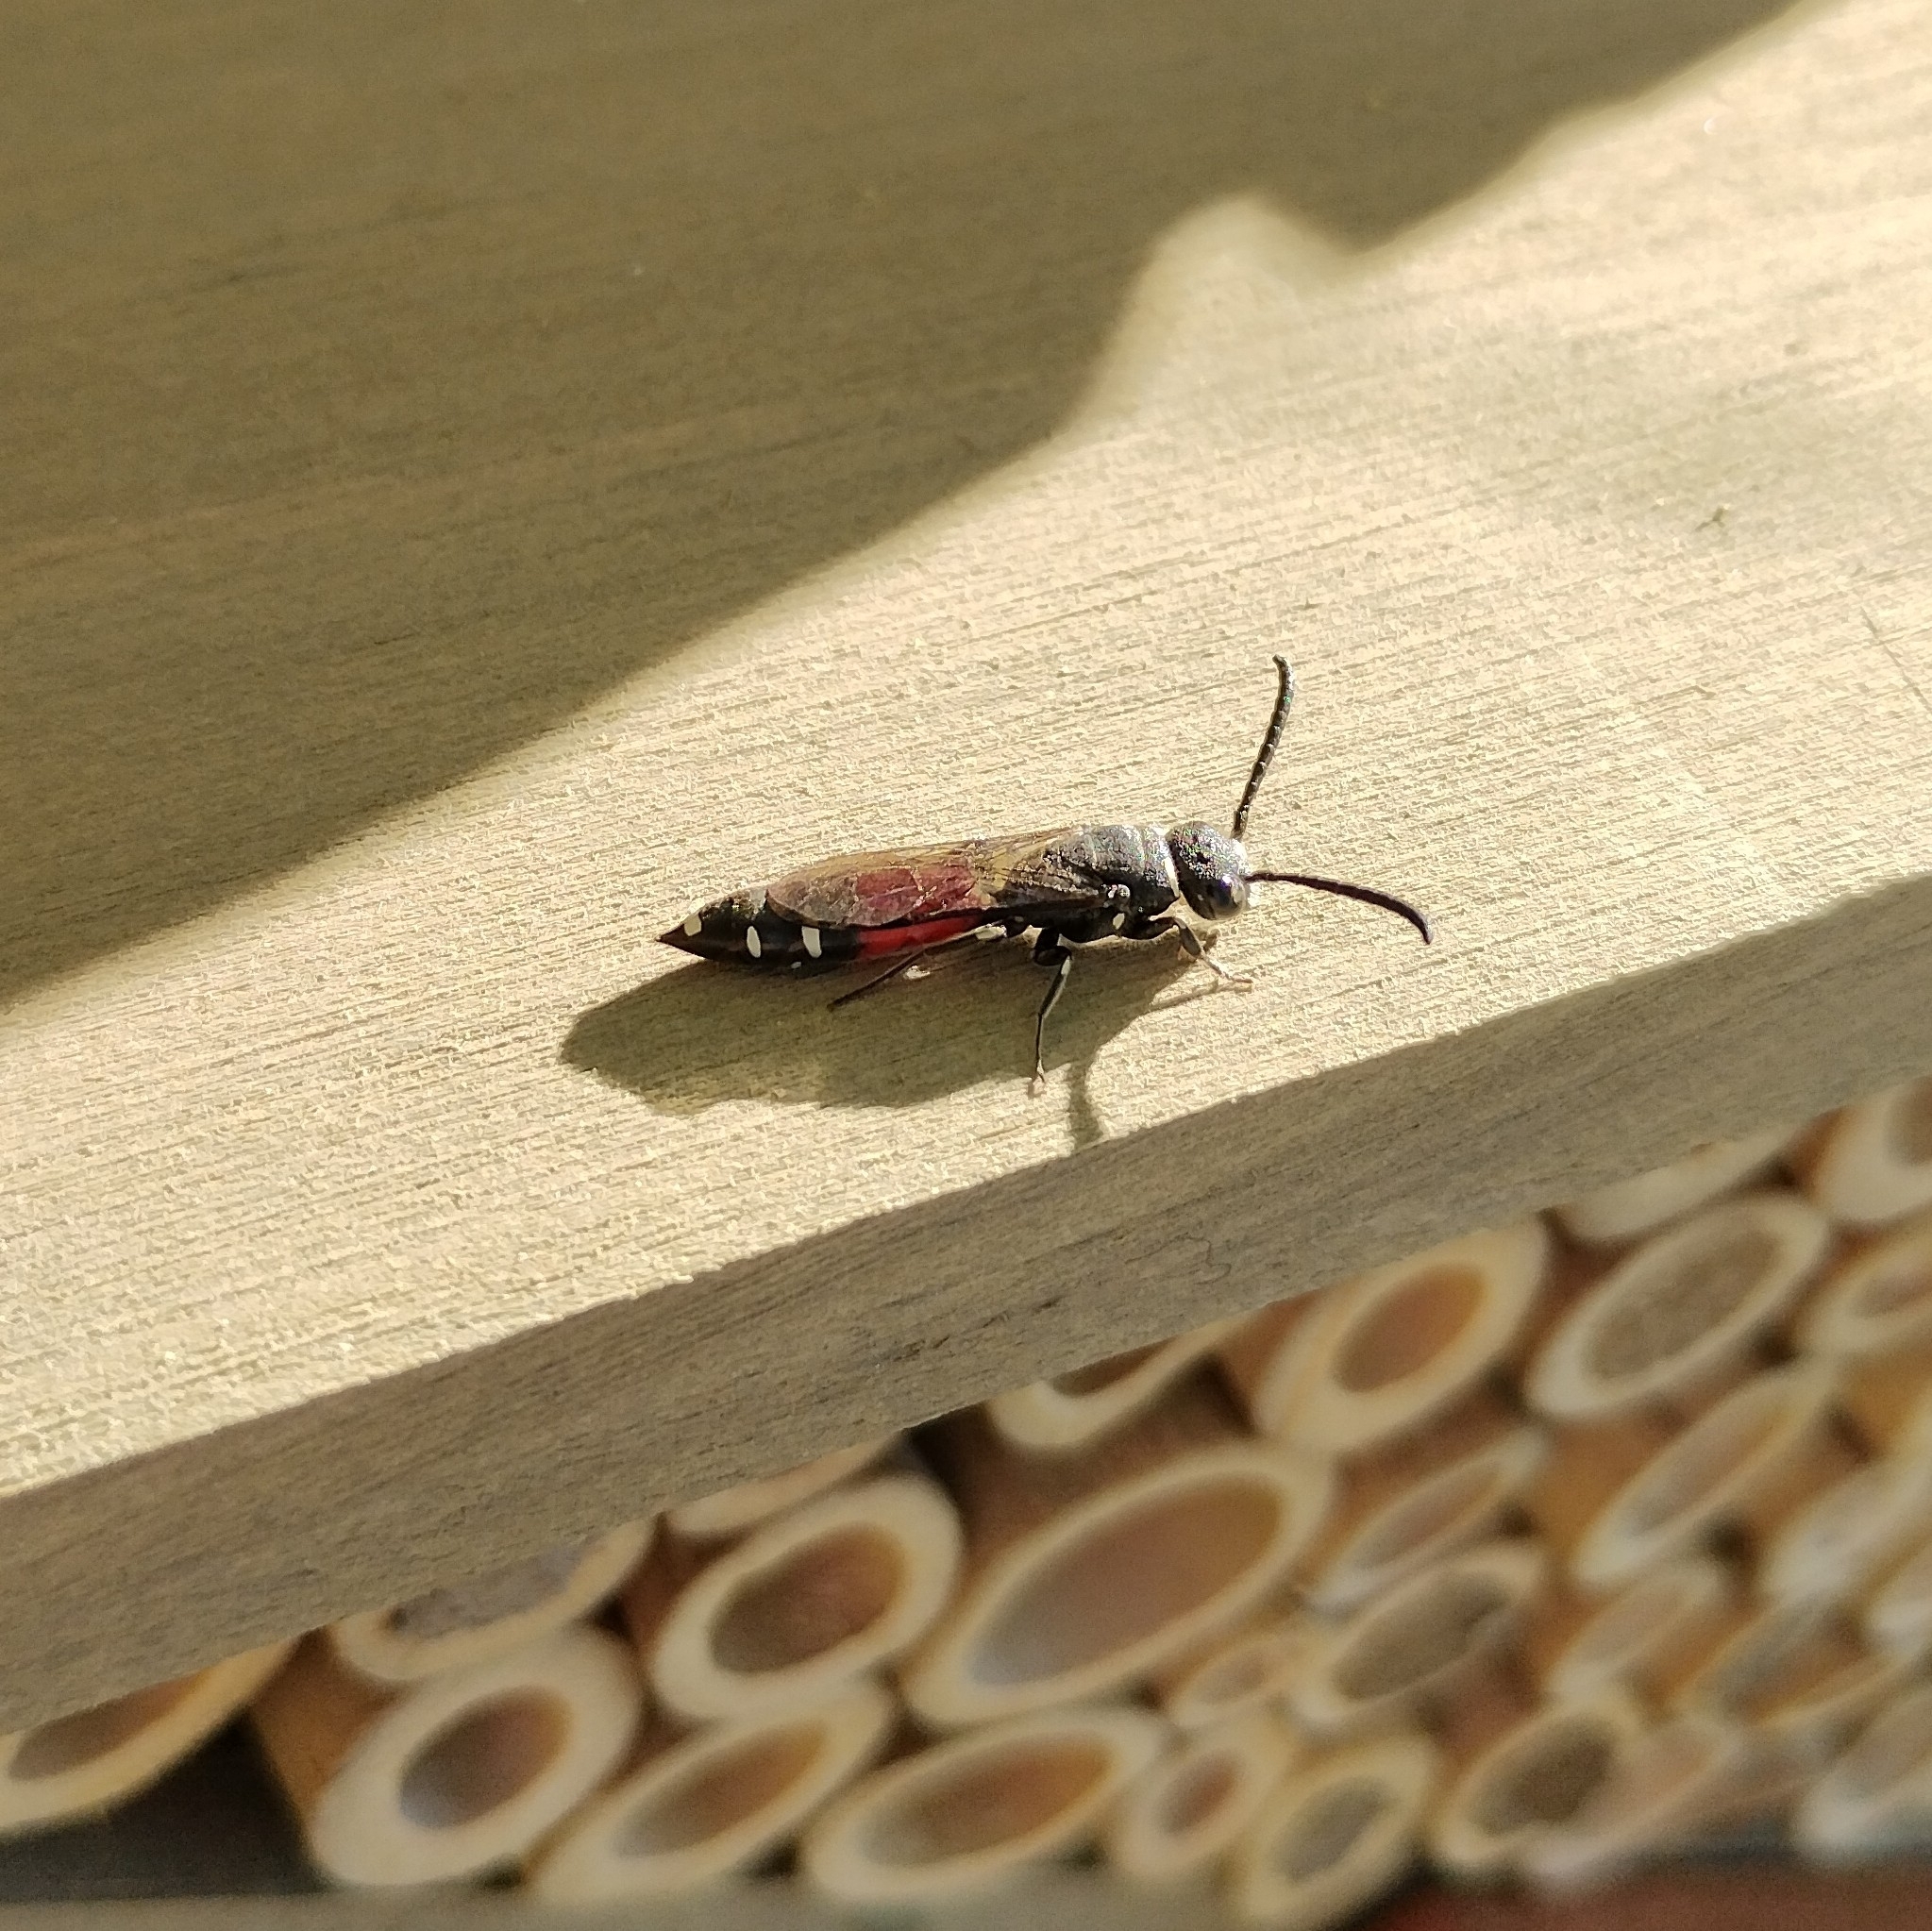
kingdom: Animalia
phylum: Arthropoda
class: Insecta
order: Hymenoptera
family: Sapygidae
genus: Sapyga
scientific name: Sapyga quinquepunctata
